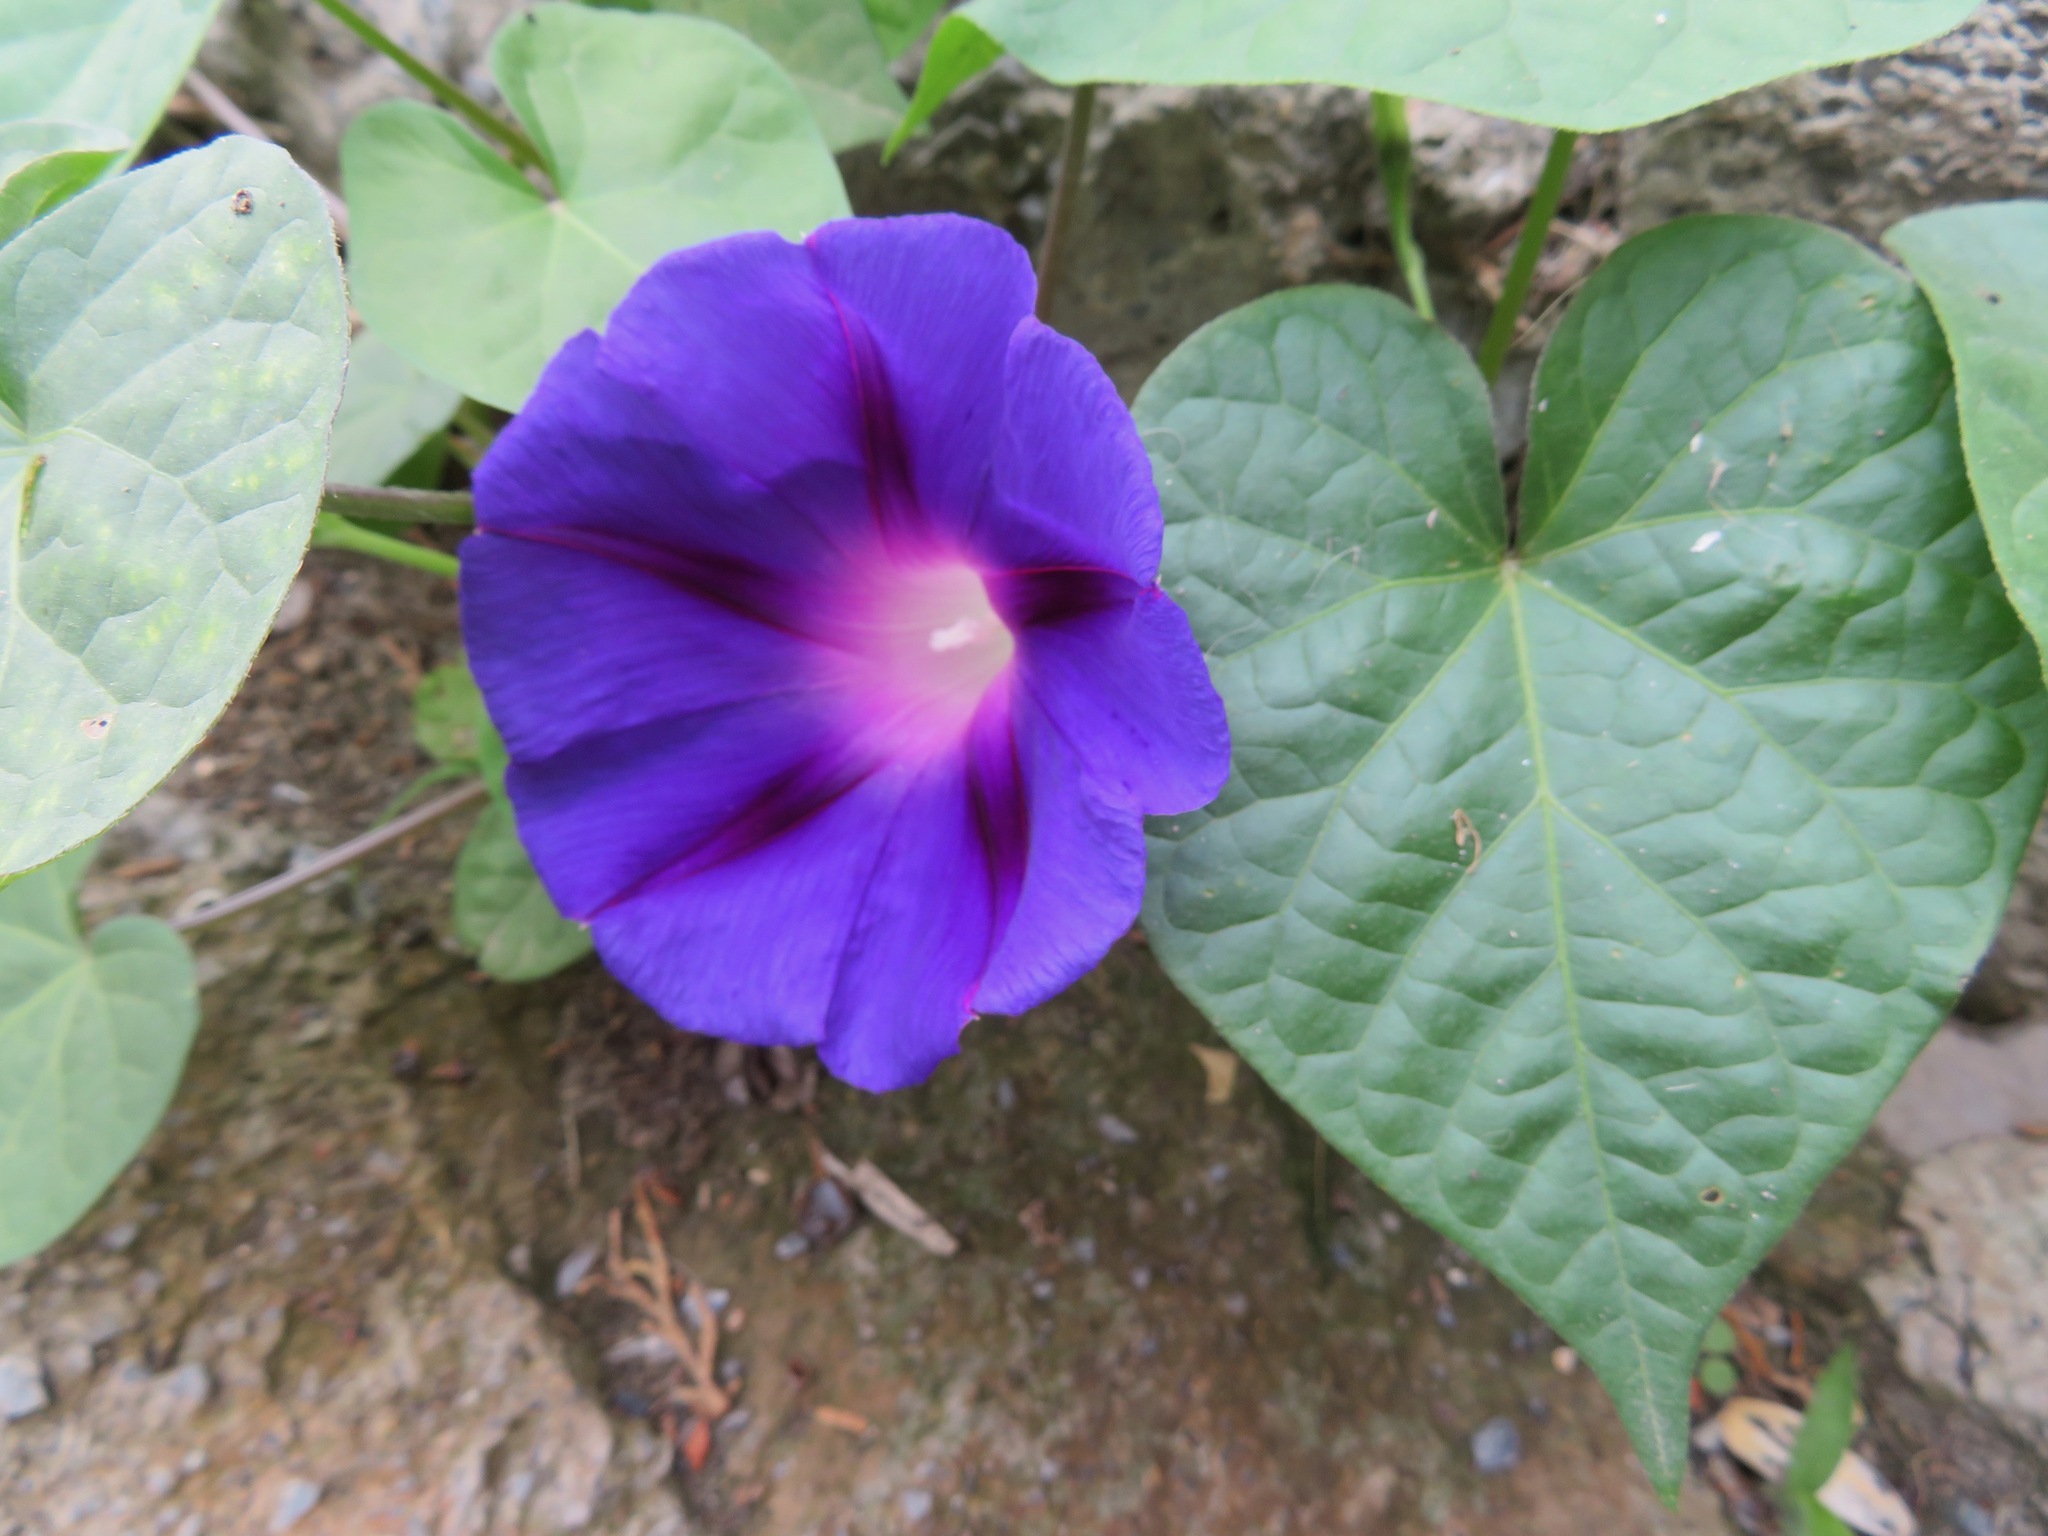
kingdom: Plantae
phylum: Tracheophyta
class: Magnoliopsida
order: Solanales
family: Convolvulaceae
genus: Ipomoea
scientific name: Ipomoea purpurea
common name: Common morning-glory
